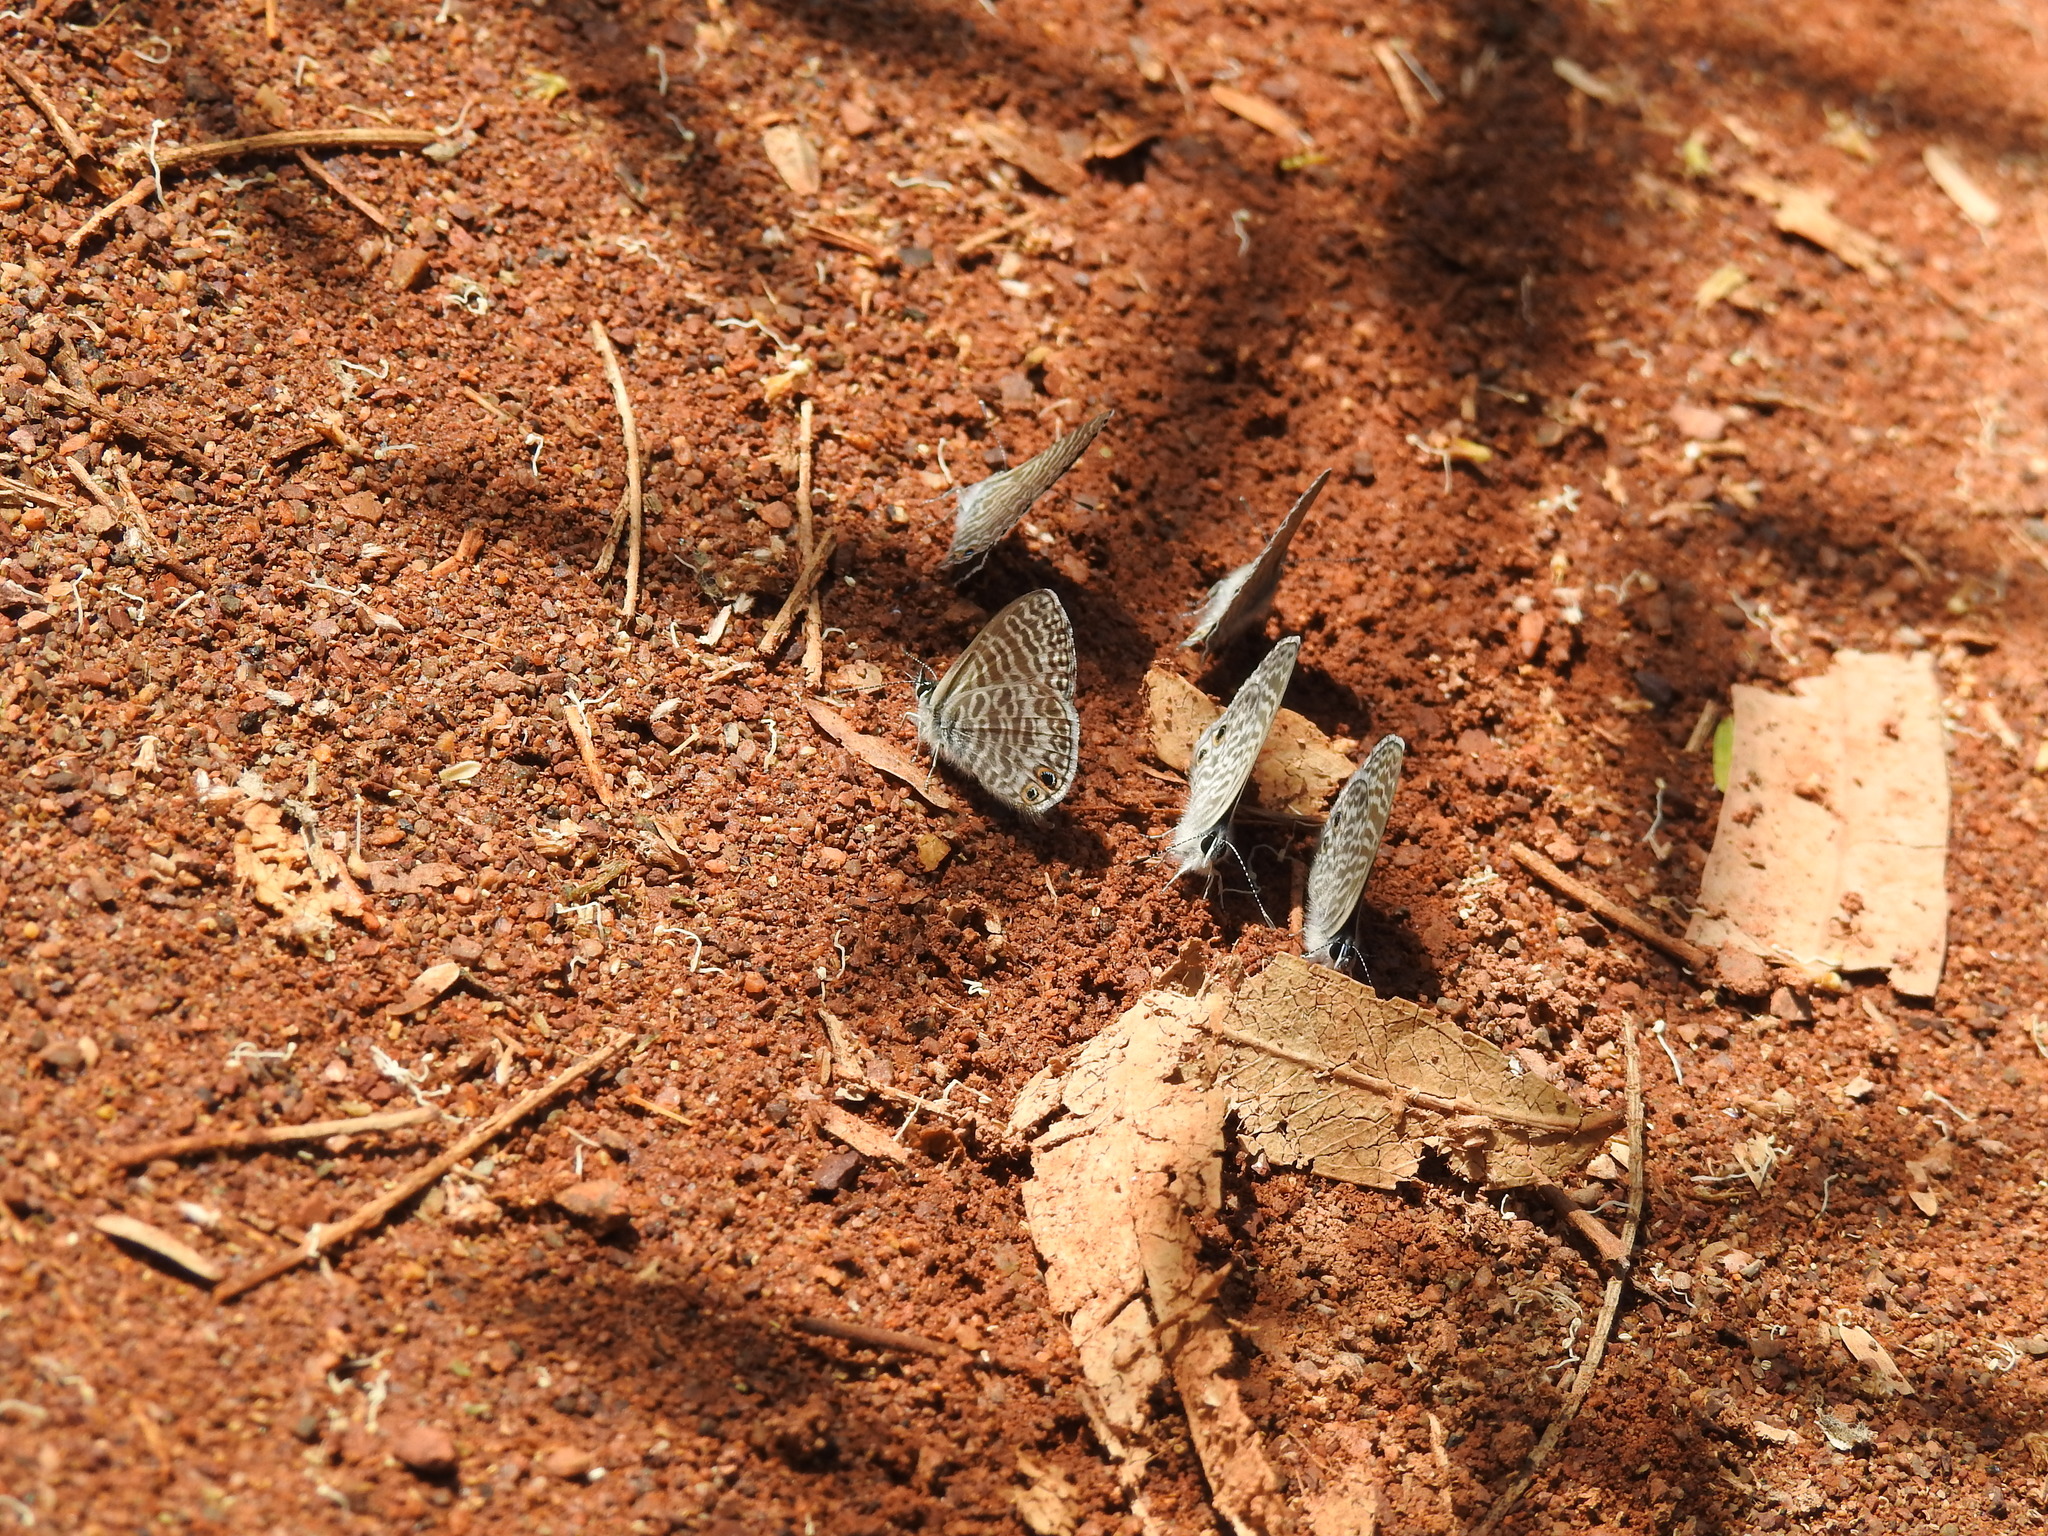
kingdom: Animalia
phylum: Arthropoda
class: Insecta
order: Lepidoptera
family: Lycaenidae
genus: Leptotes
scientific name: Leptotes marina
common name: Marine blue
